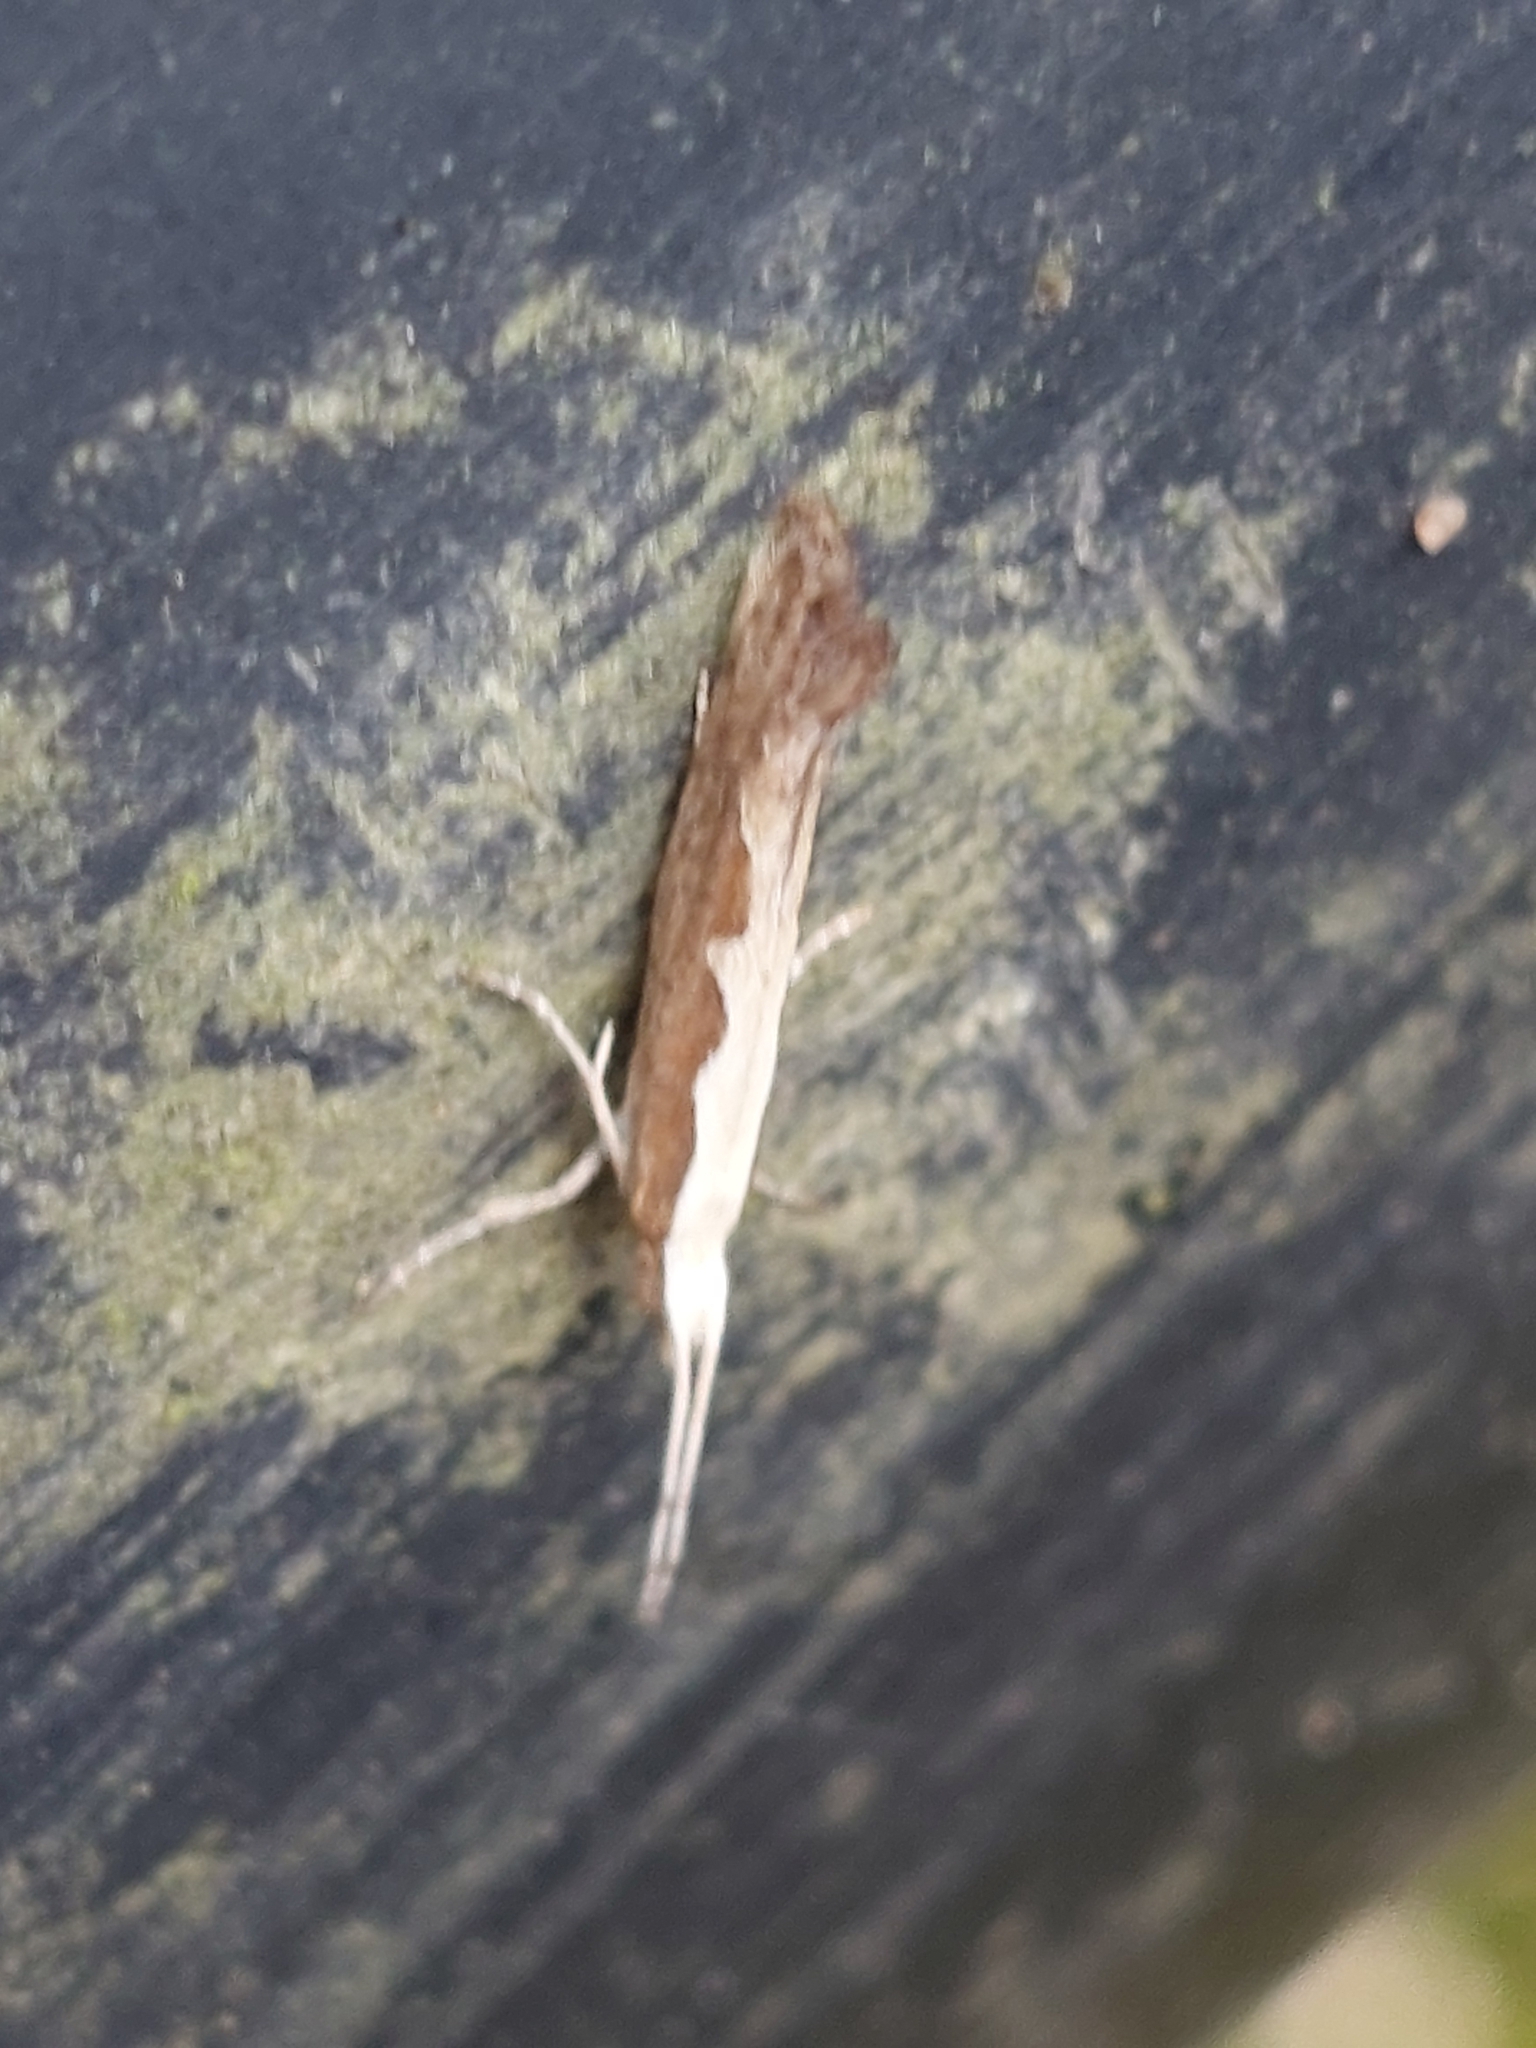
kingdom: Animalia
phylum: Arthropoda
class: Insecta
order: Lepidoptera
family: Plutellidae
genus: Plutella
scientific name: Plutella xylostella
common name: Diamond-back moth
